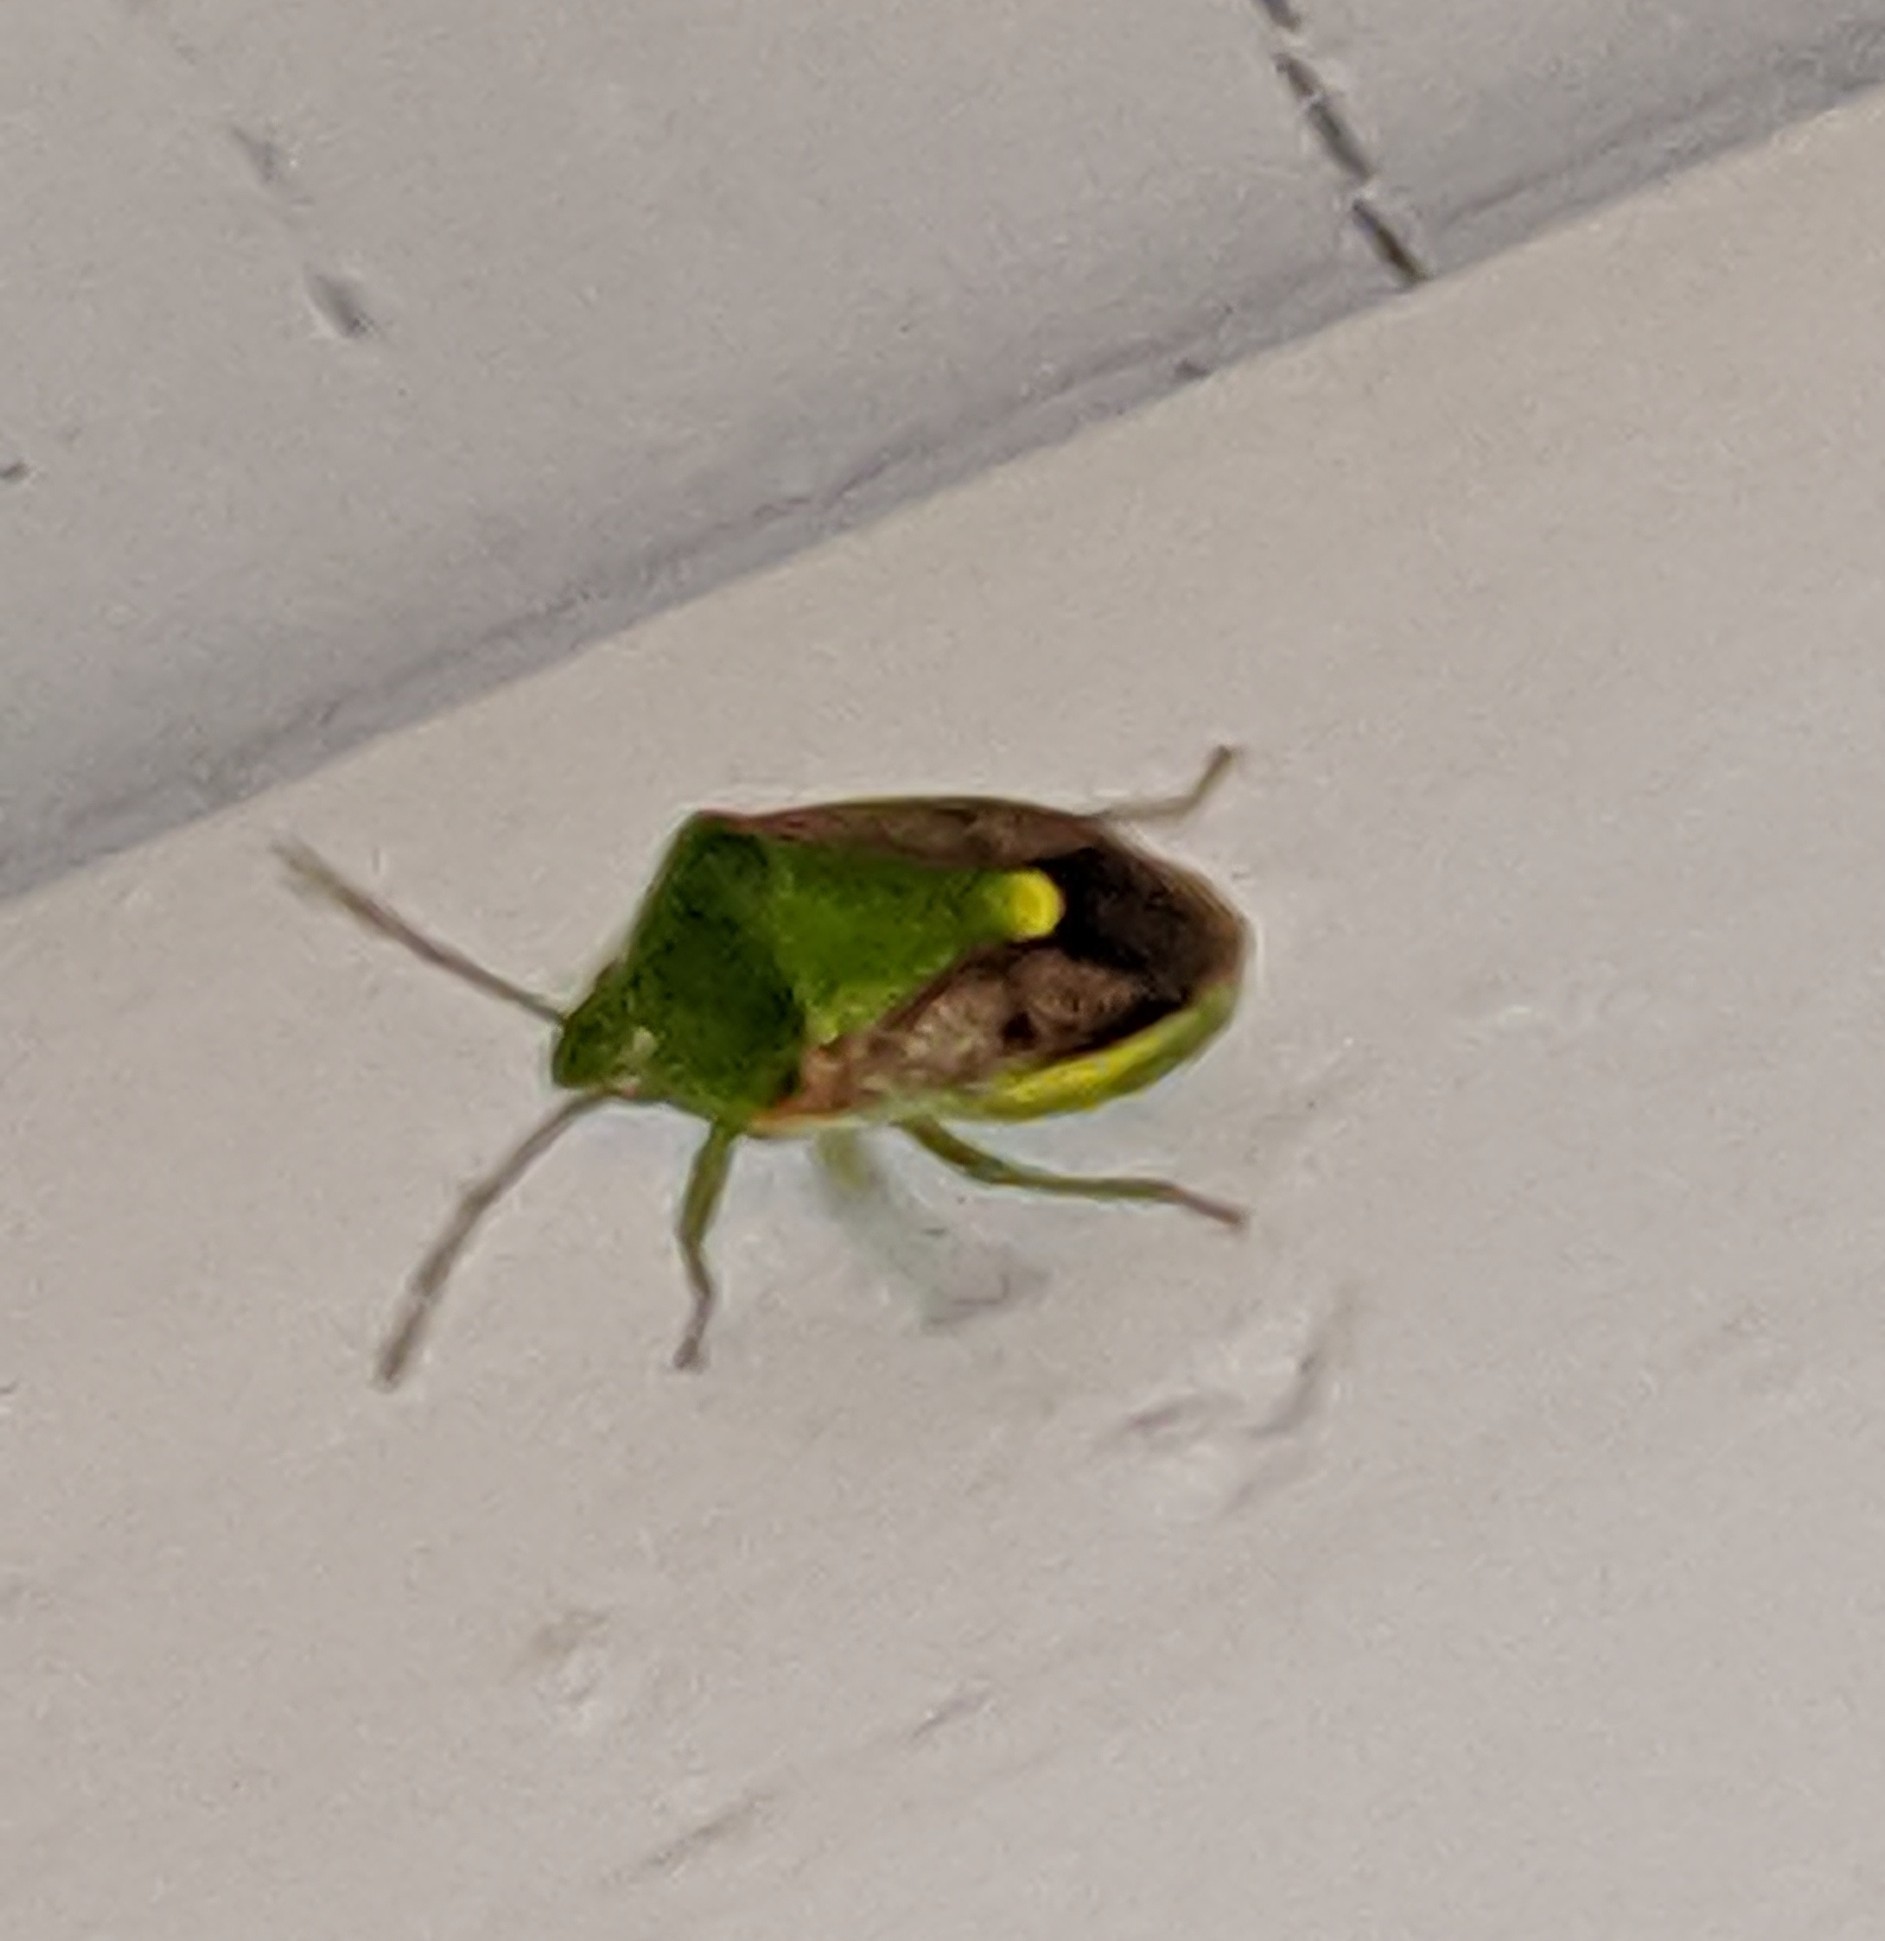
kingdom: Animalia
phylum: Arthropoda
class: Insecta
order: Hemiptera
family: Pentatomidae
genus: Plautia
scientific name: Plautia stali
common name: Stink bug
